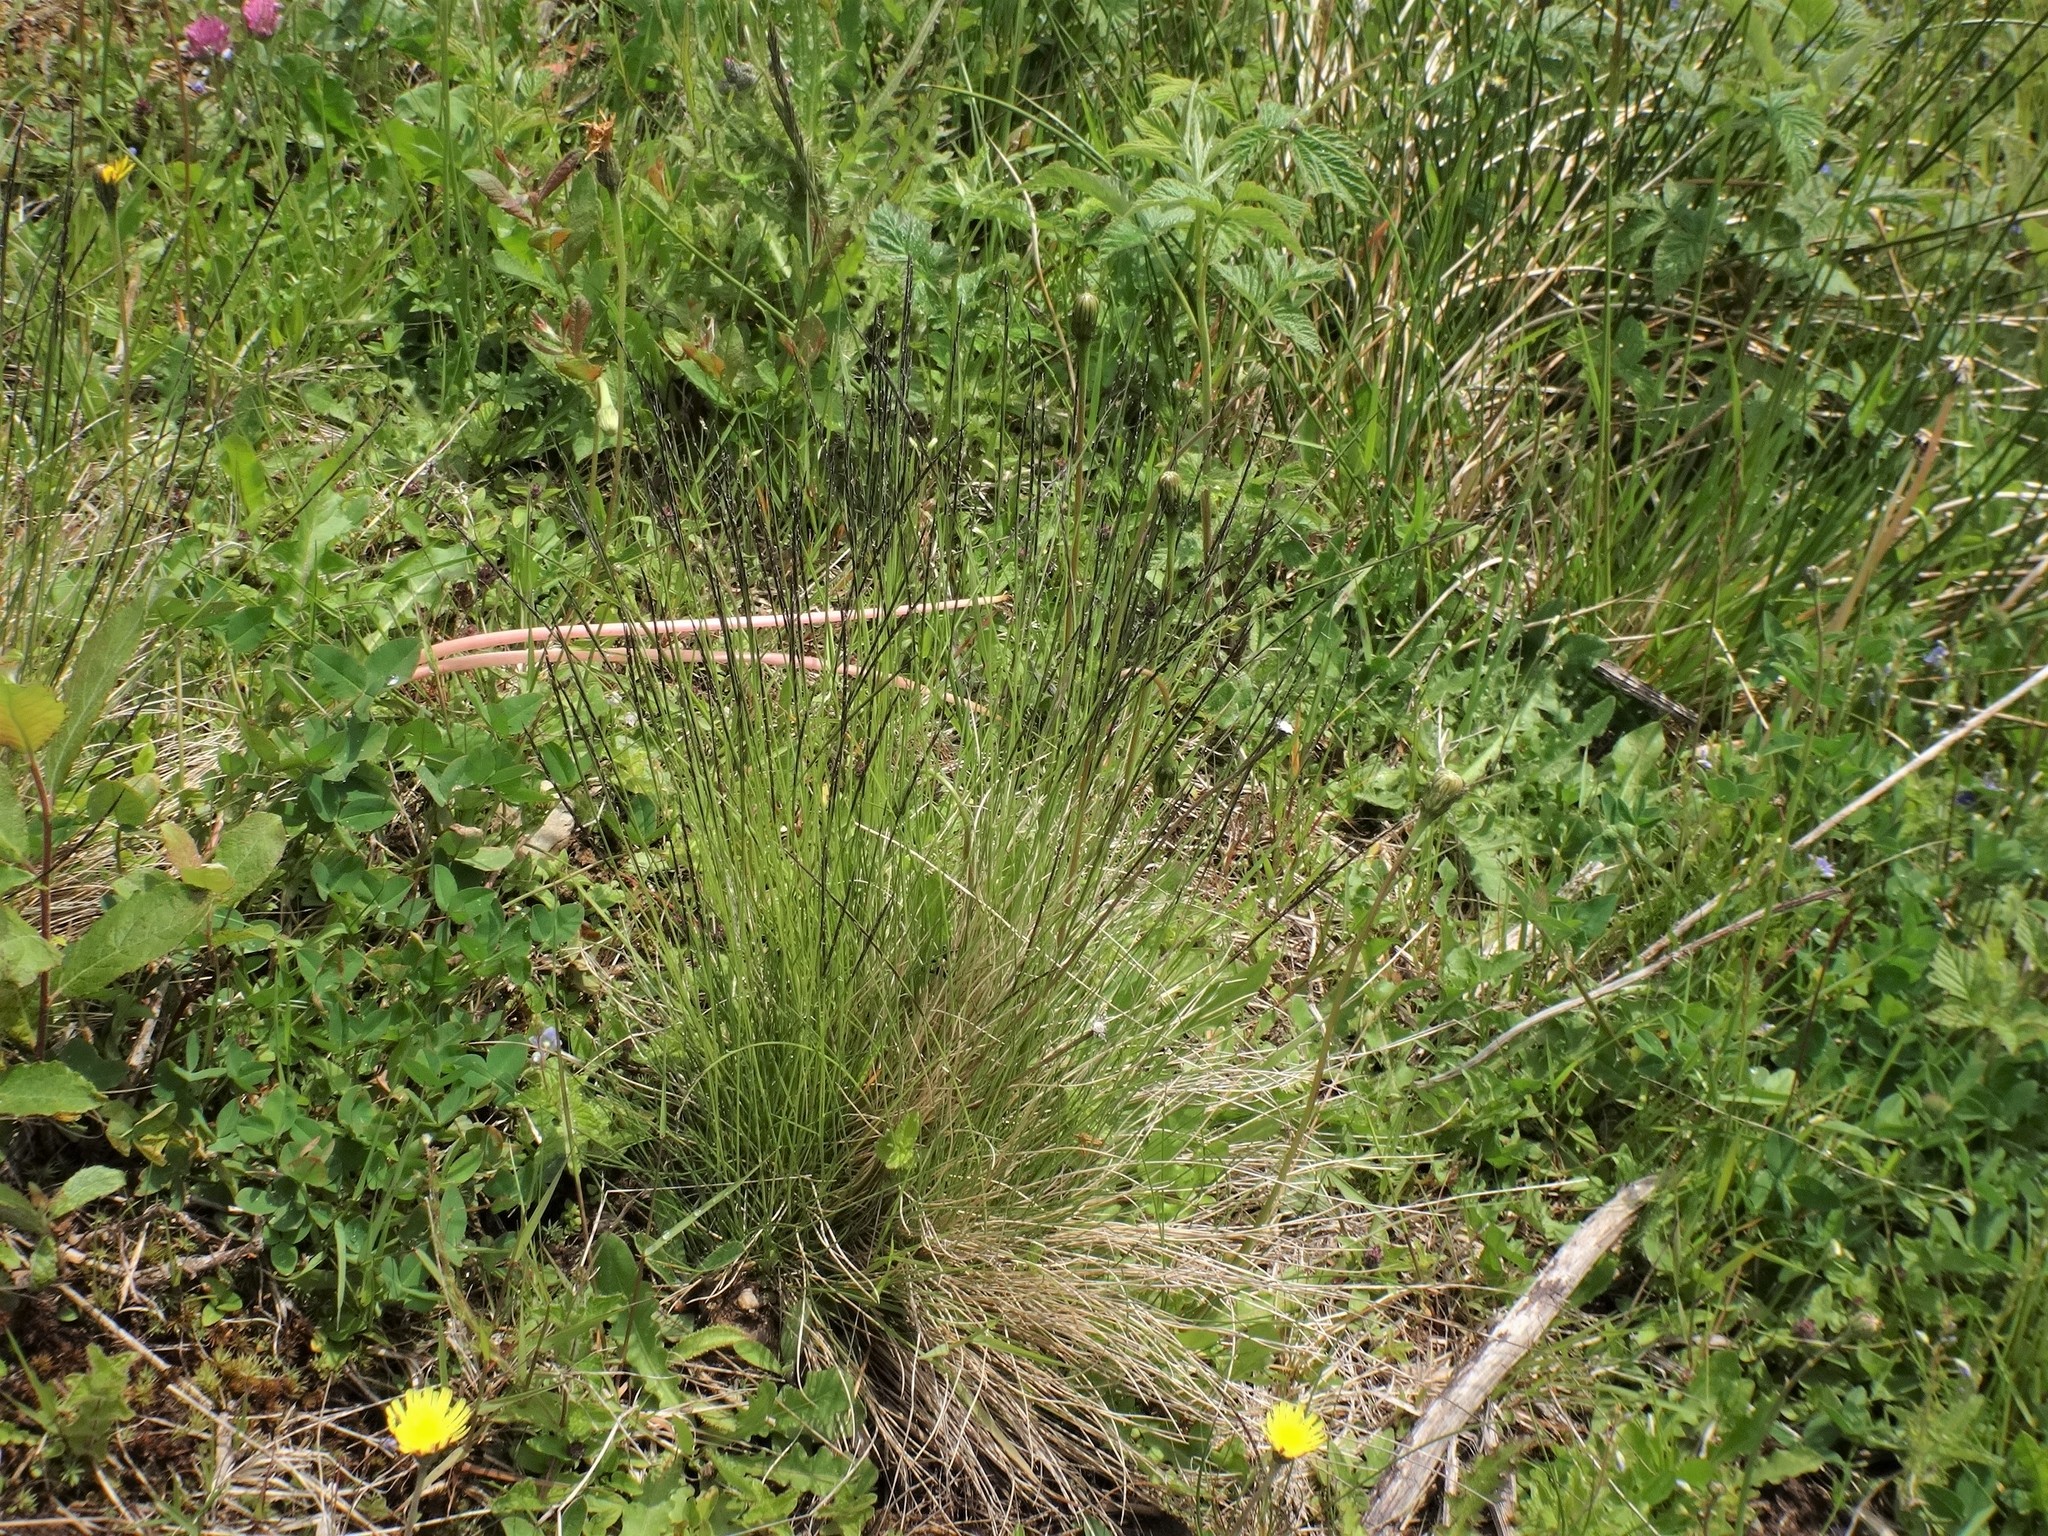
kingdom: Plantae
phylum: Tracheophyta
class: Liliopsida
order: Poales
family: Poaceae
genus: Nardus
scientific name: Nardus stricta
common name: Mat-grass
